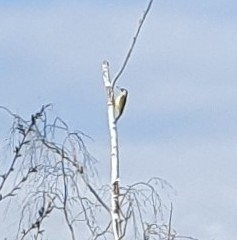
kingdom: Animalia
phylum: Chordata
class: Aves
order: Piciformes
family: Picidae
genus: Picus
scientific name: Picus viridis
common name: European green woodpecker
